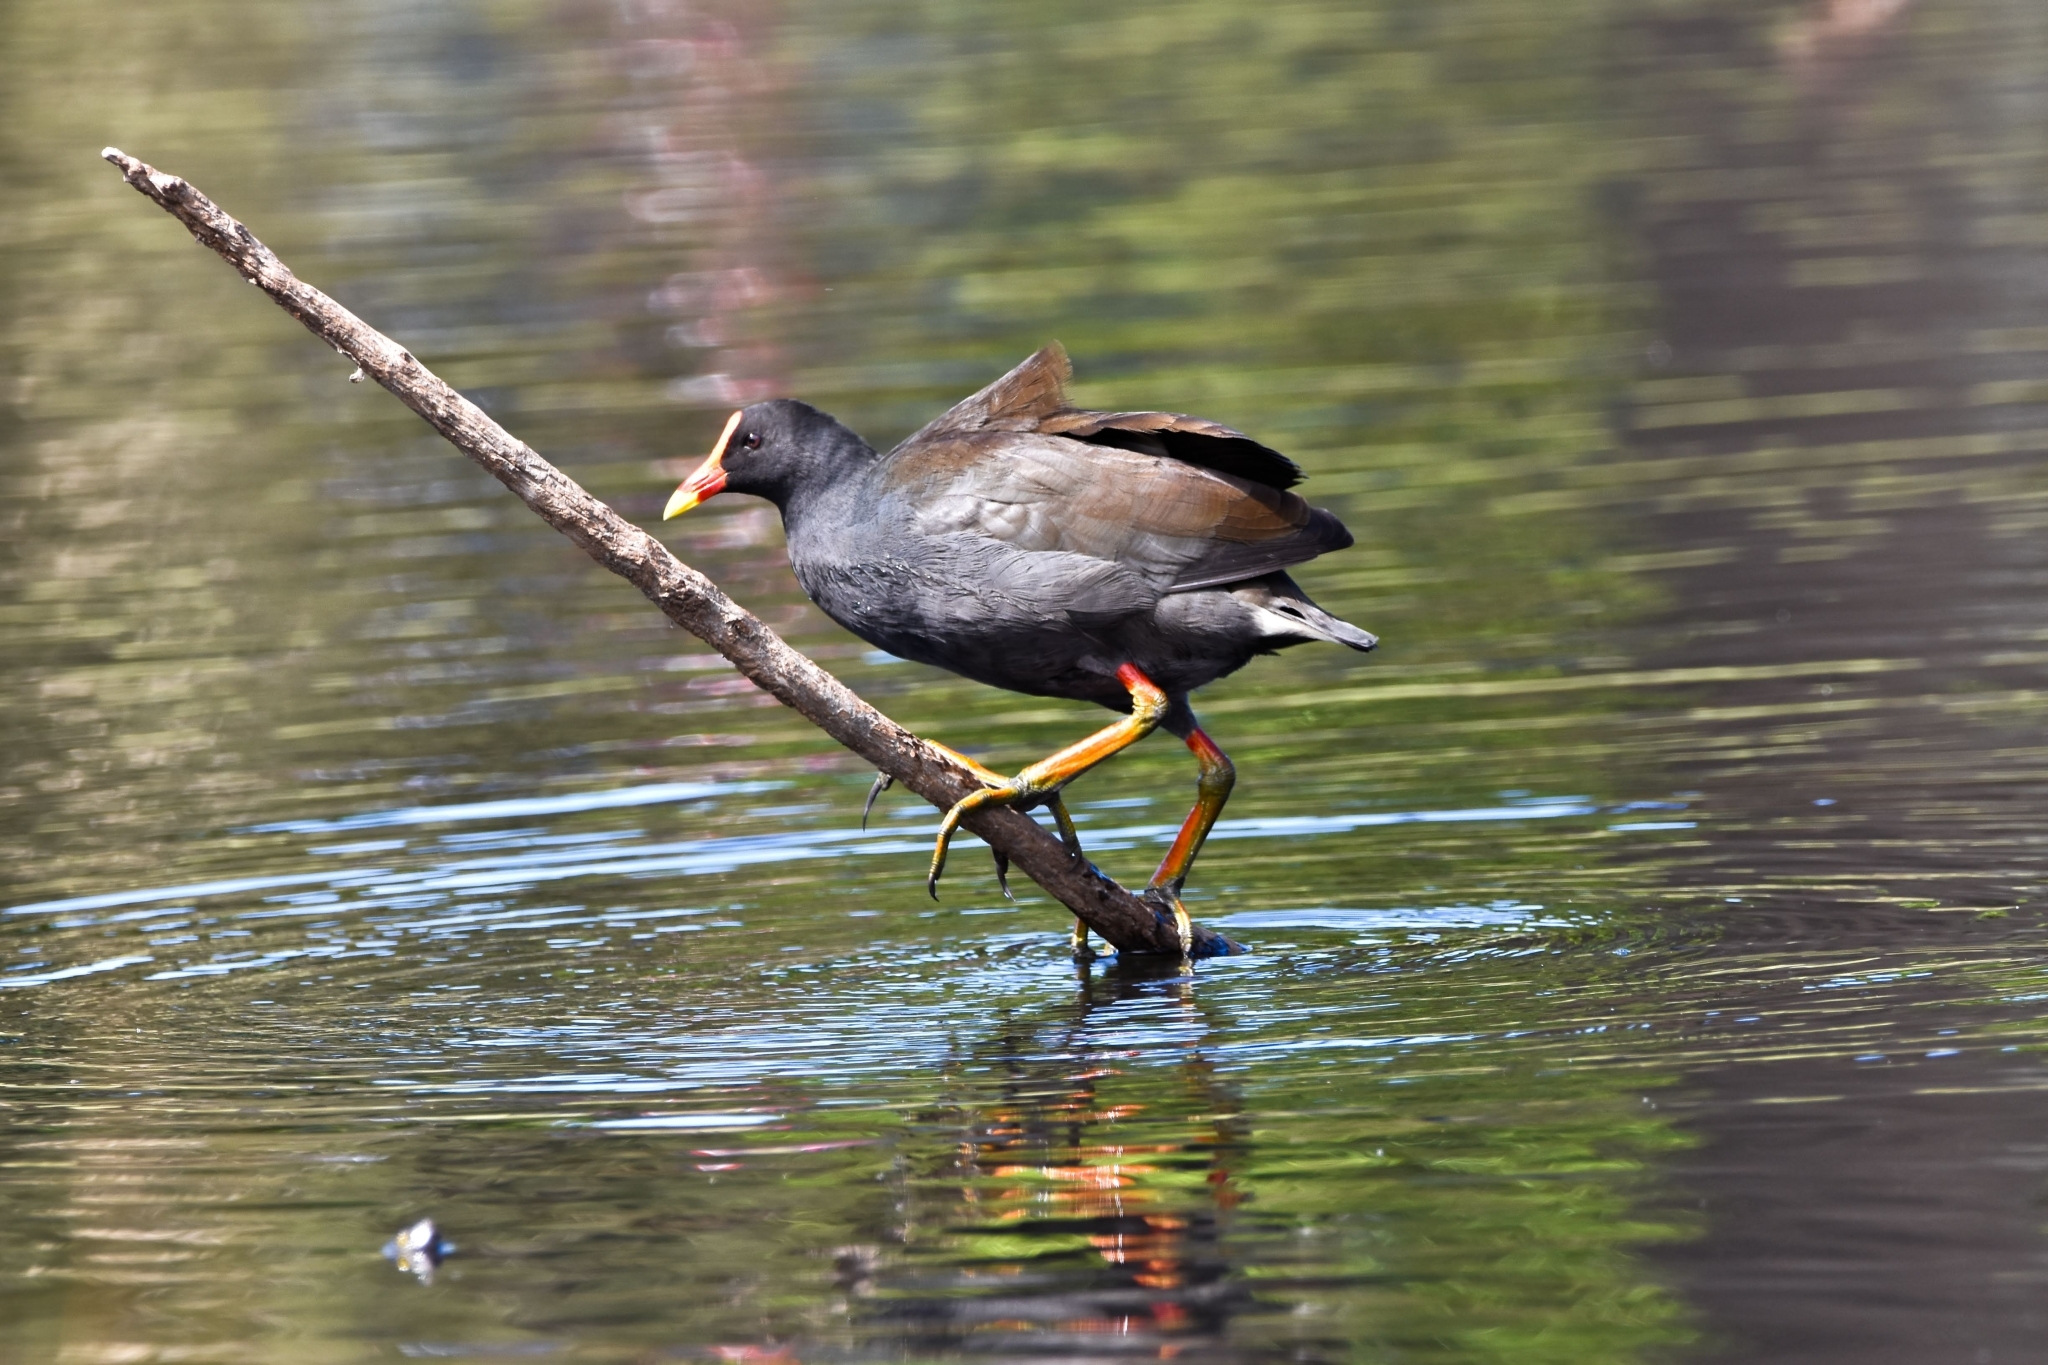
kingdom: Animalia
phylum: Chordata
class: Aves
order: Gruiformes
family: Rallidae
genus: Gallinula
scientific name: Gallinula tenebrosa
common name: Dusky moorhen
